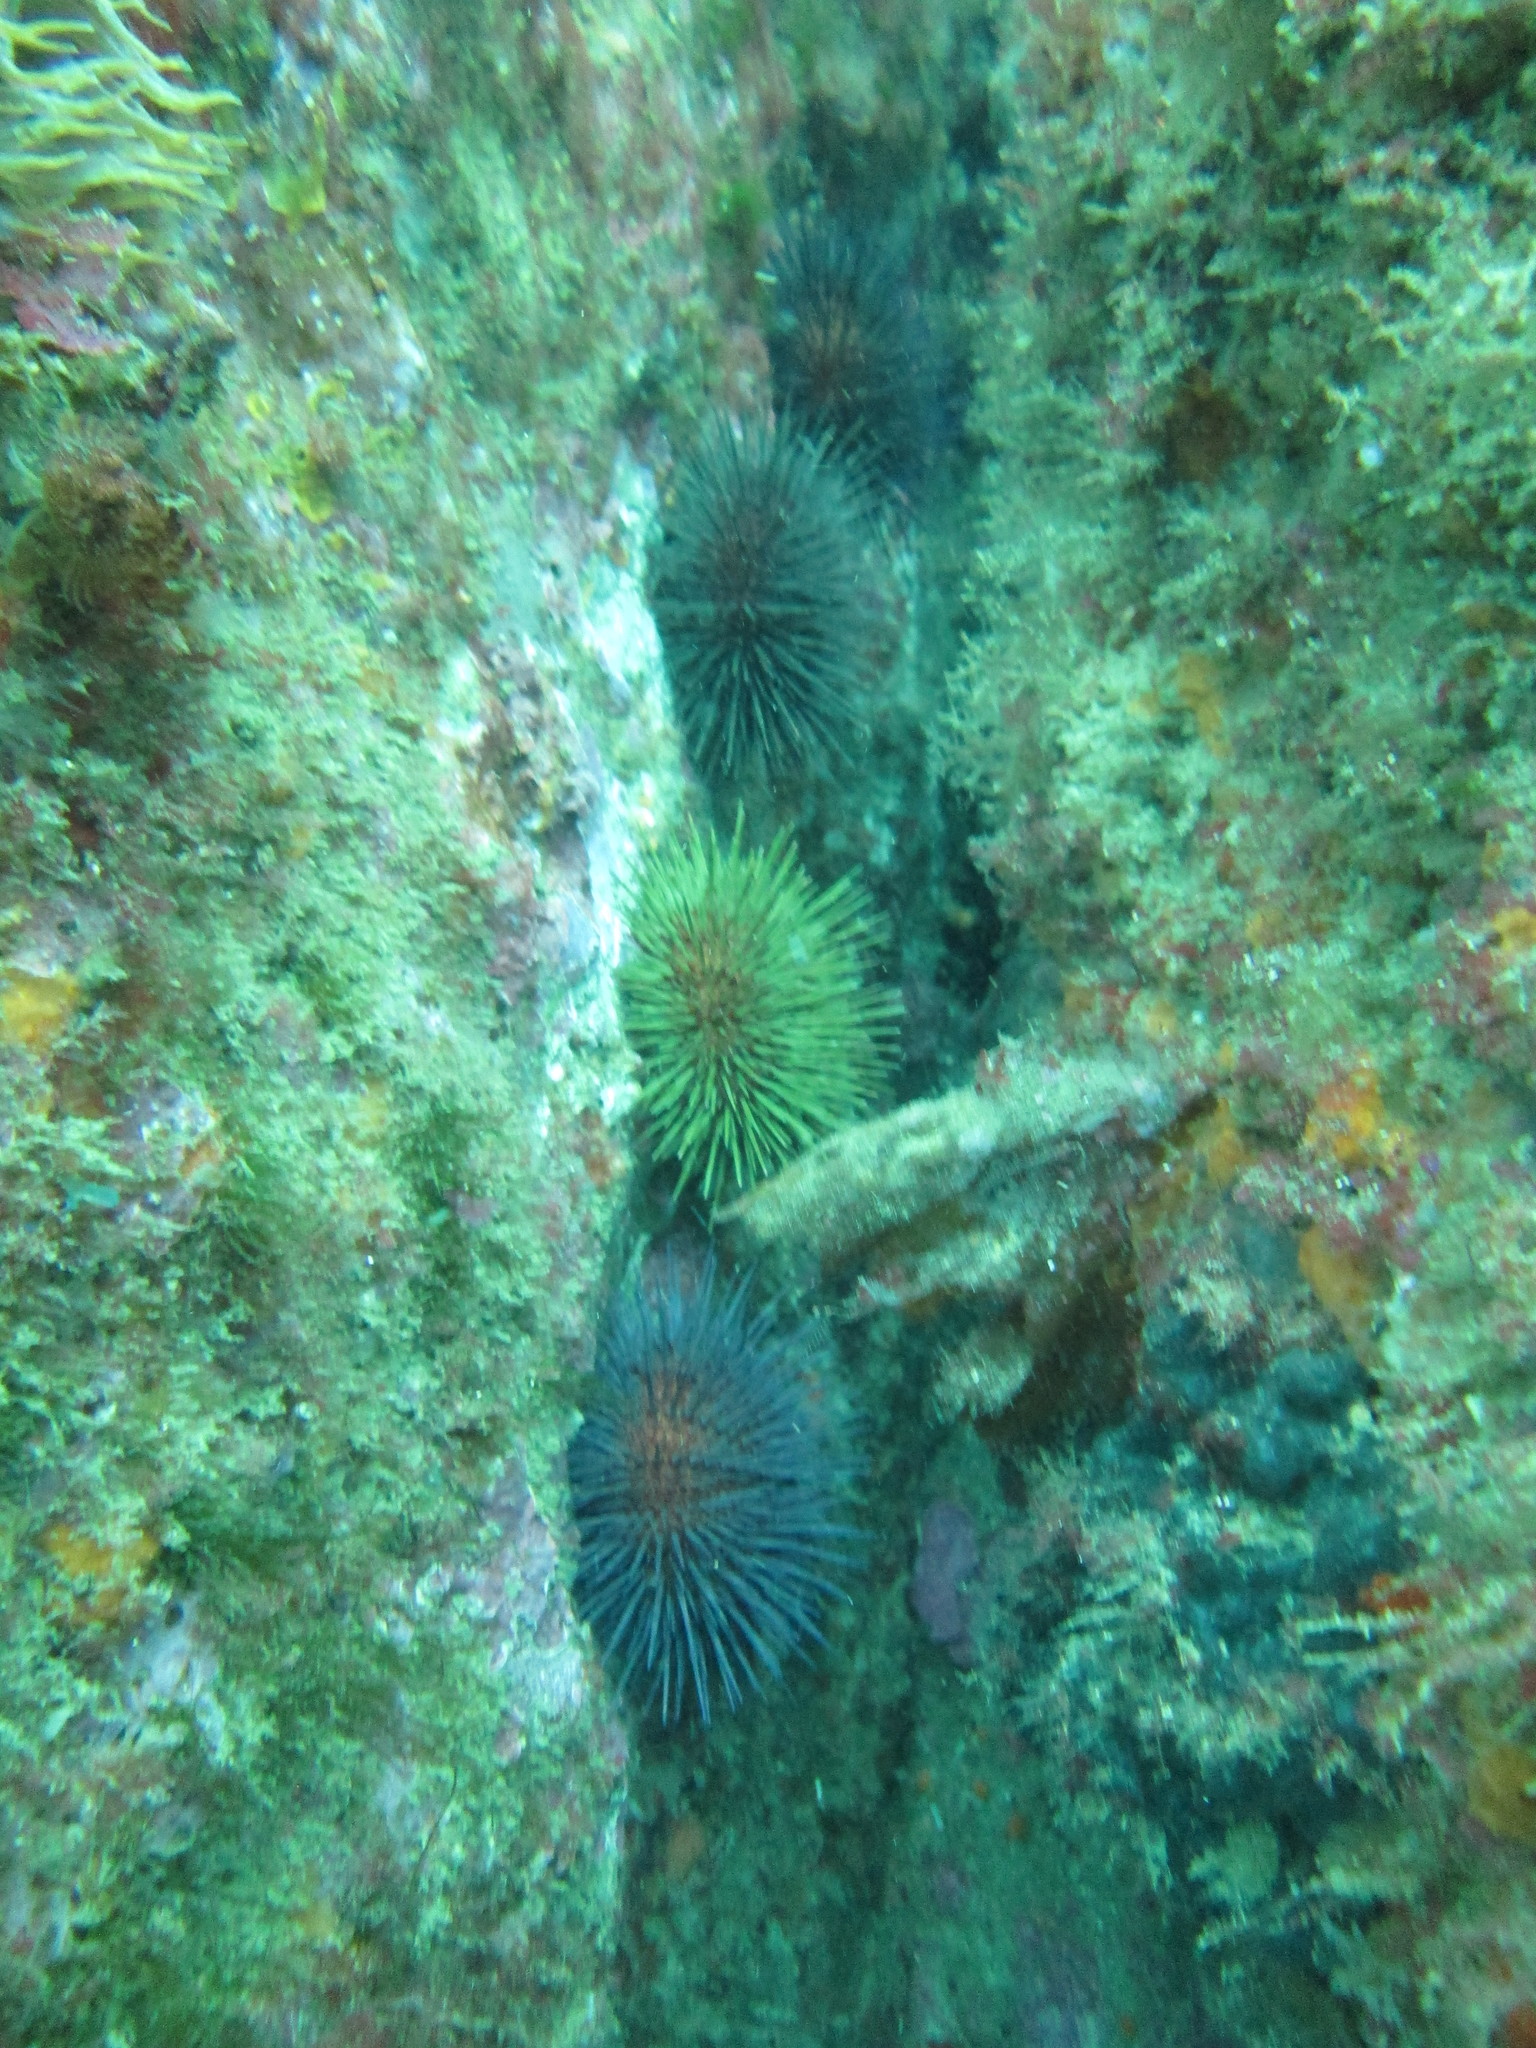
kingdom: Animalia
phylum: Echinodermata
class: Echinoidea
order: Camarodonta
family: Parechinidae
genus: Paracentrotus
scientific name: Paracentrotus lividus
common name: Purple sea urchin
